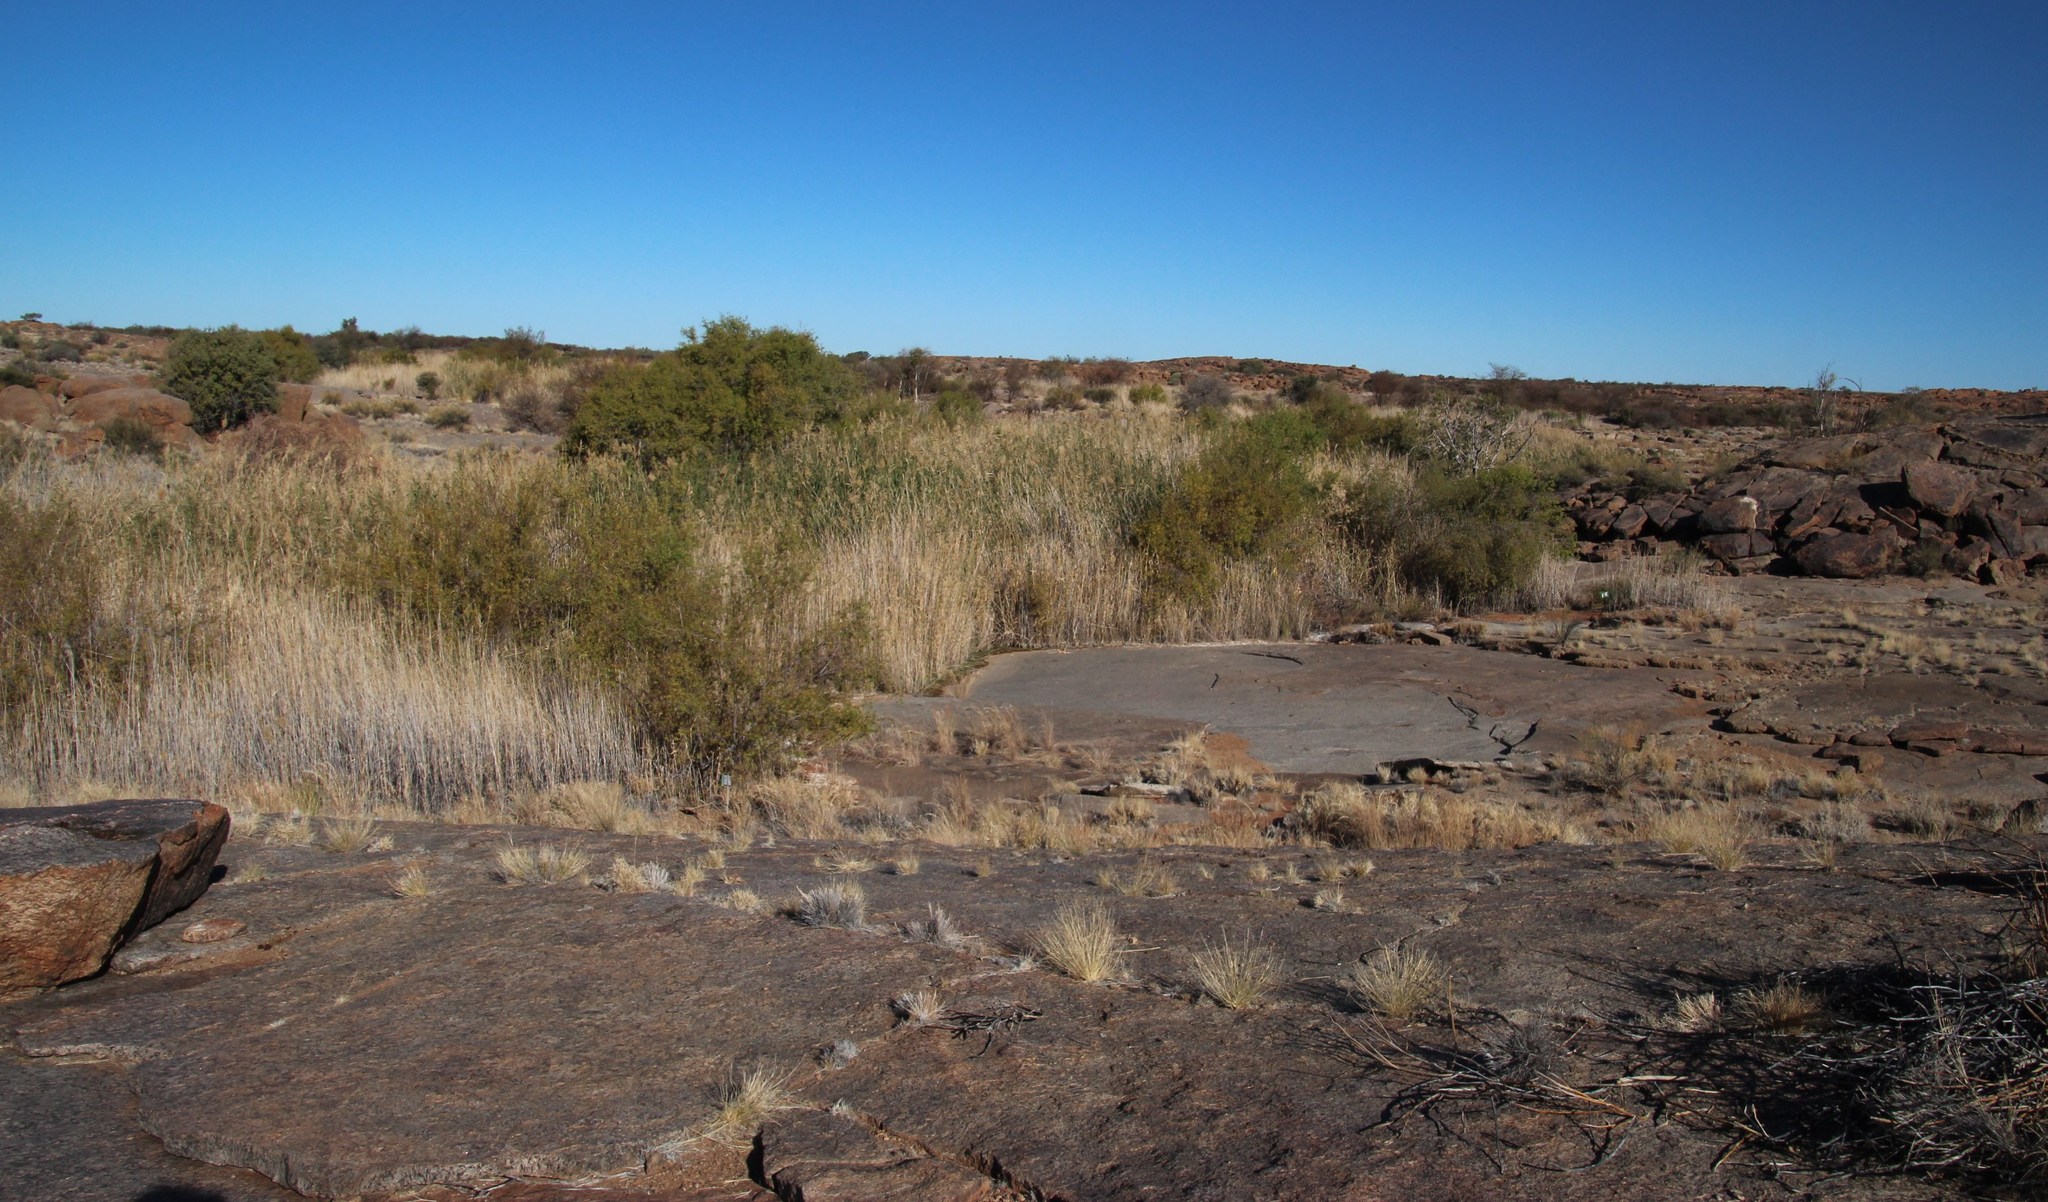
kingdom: Plantae
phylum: Tracheophyta
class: Liliopsida
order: Poales
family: Poaceae
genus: Phragmites
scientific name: Phragmites australis
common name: Common reed
